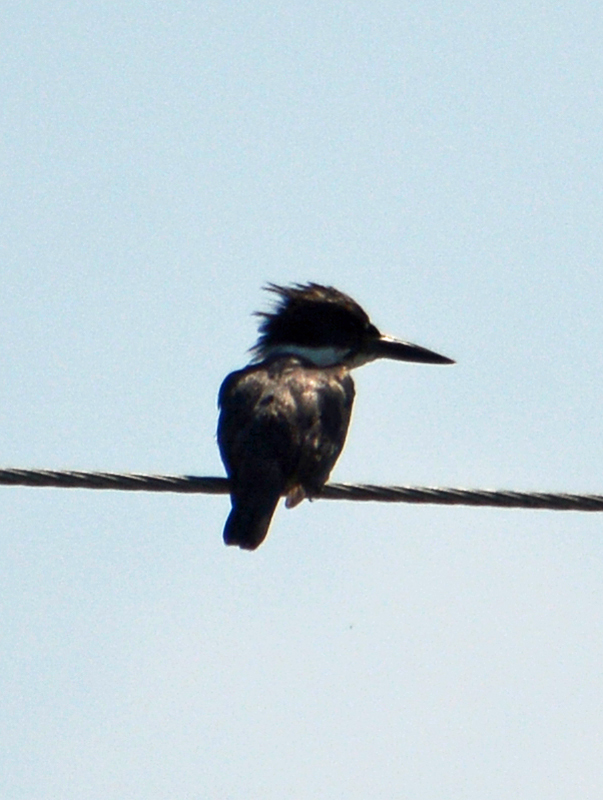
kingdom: Animalia
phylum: Chordata
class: Aves
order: Coraciiformes
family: Alcedinidae
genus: Megaceryle
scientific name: Megaceryle alcyon
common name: Belted kingfisher
